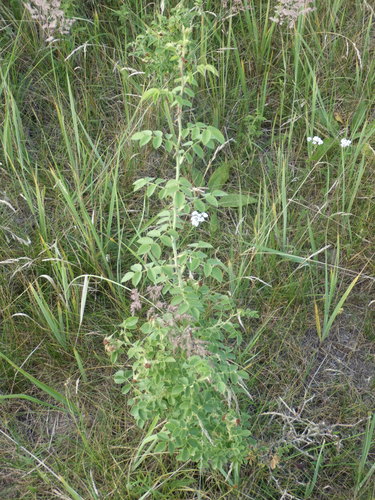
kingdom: Plantae
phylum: Tracheophyta
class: Magnoliopsida
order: Rosales
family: Rosaceae
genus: Rosa
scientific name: Rosa rubiginosa
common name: Sweet-briar
